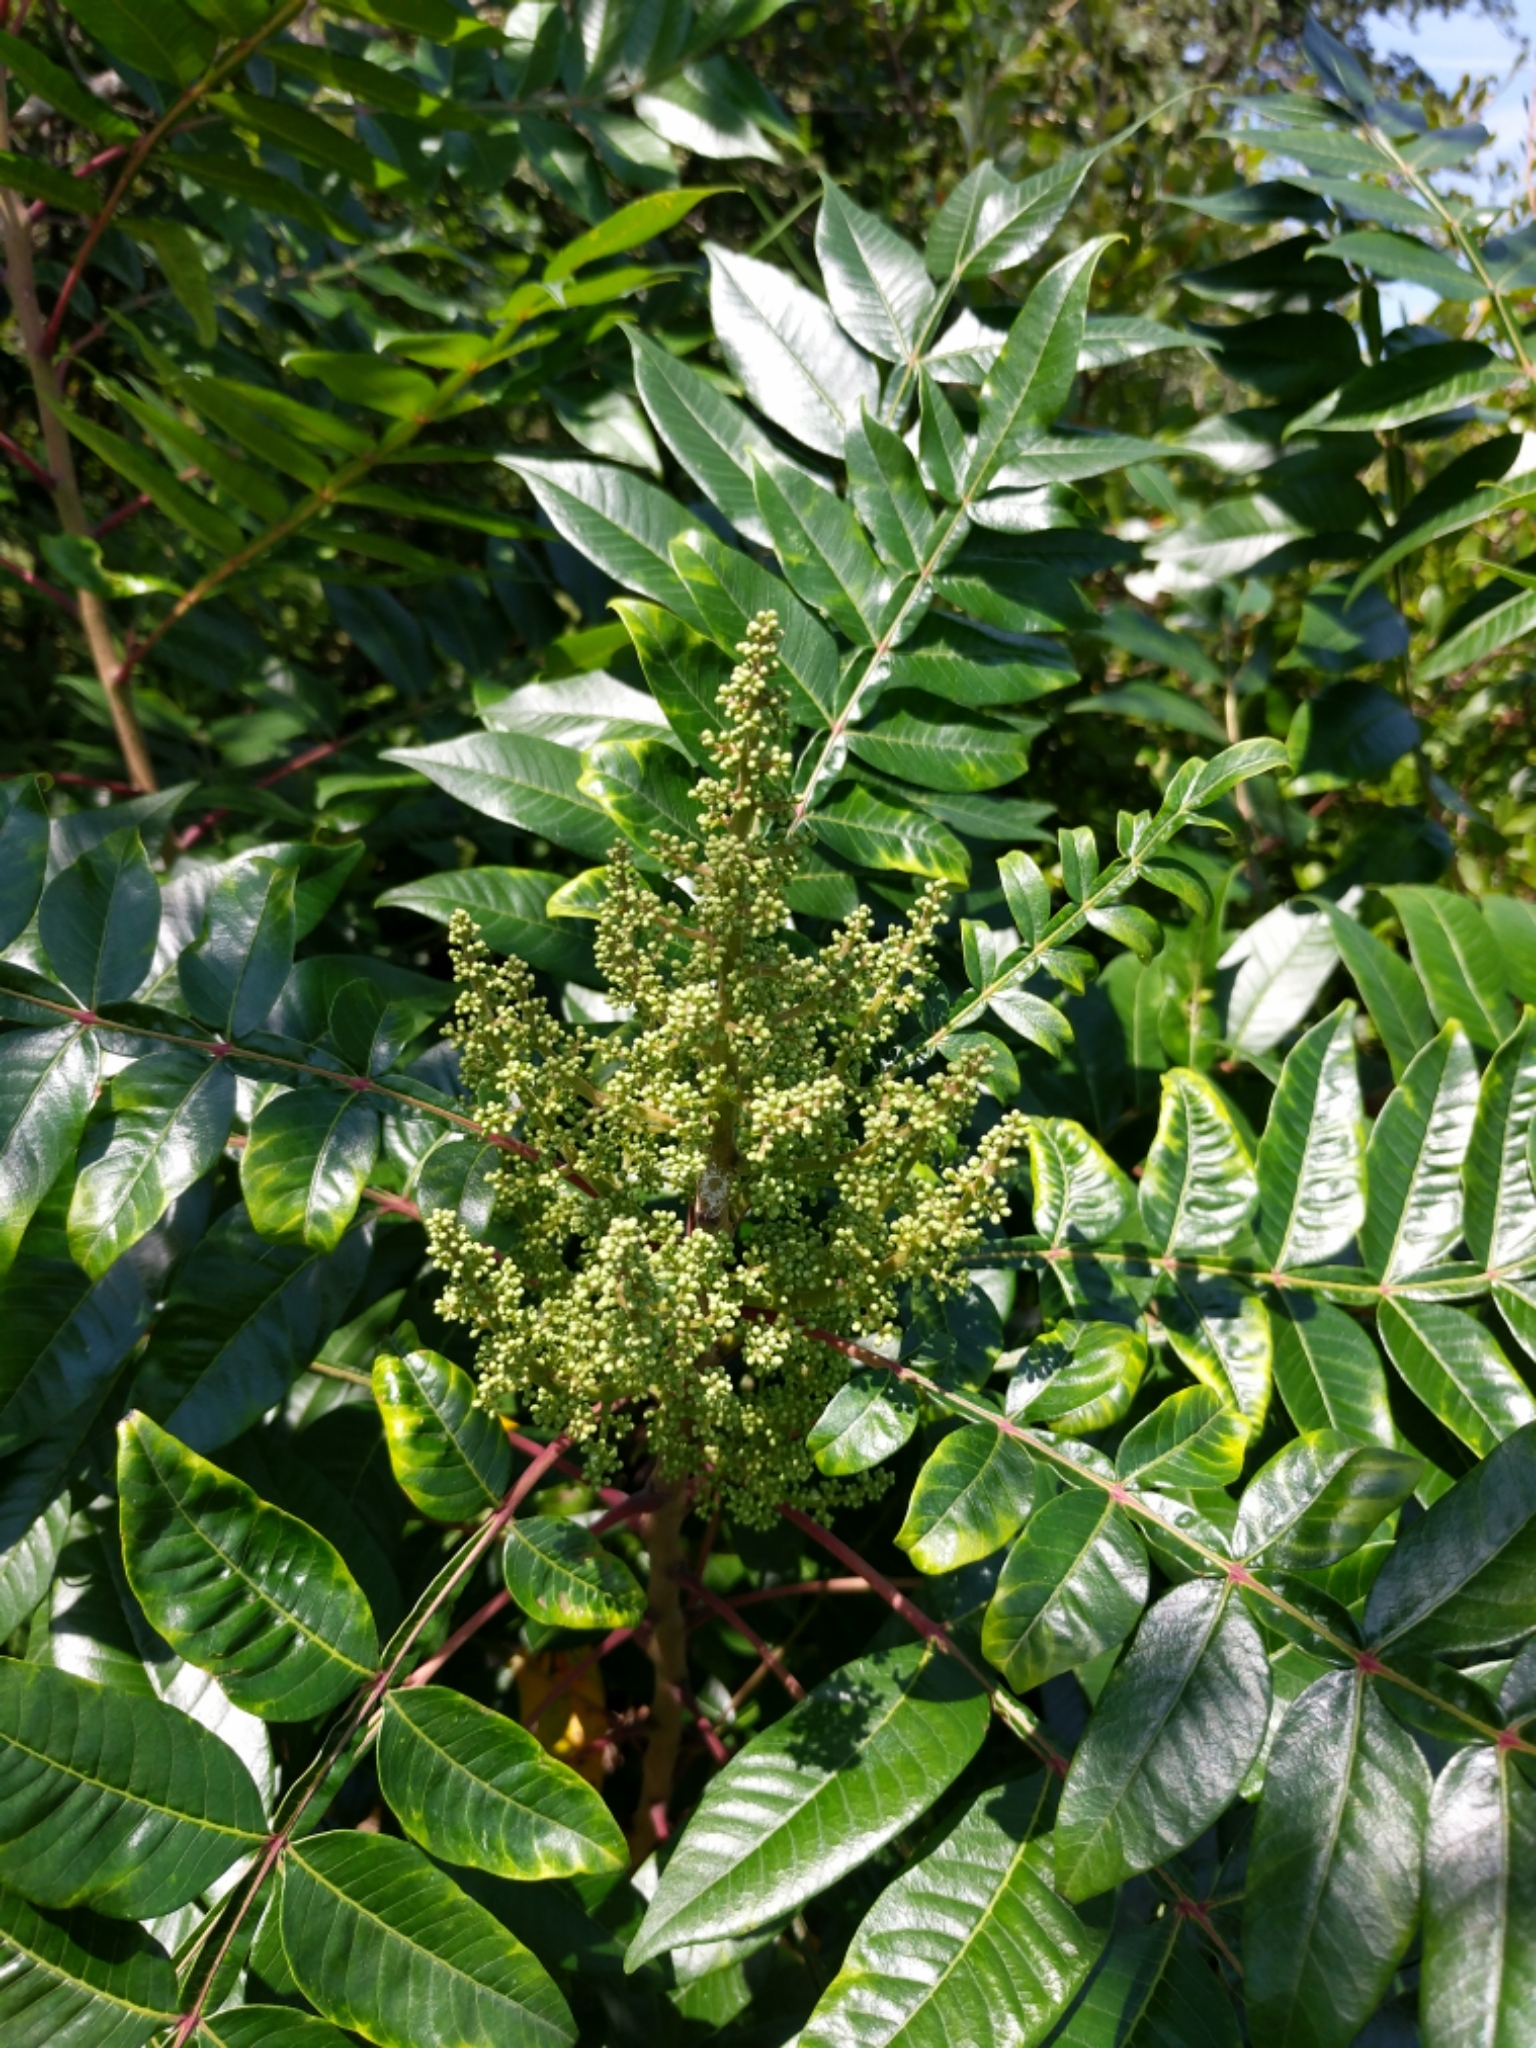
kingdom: Plantae
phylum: Tracheophyta
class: Magnoliopsida
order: Sapindales
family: Anacardiaceae
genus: Rhus
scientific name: Rhus copallina
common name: Shining sumac
